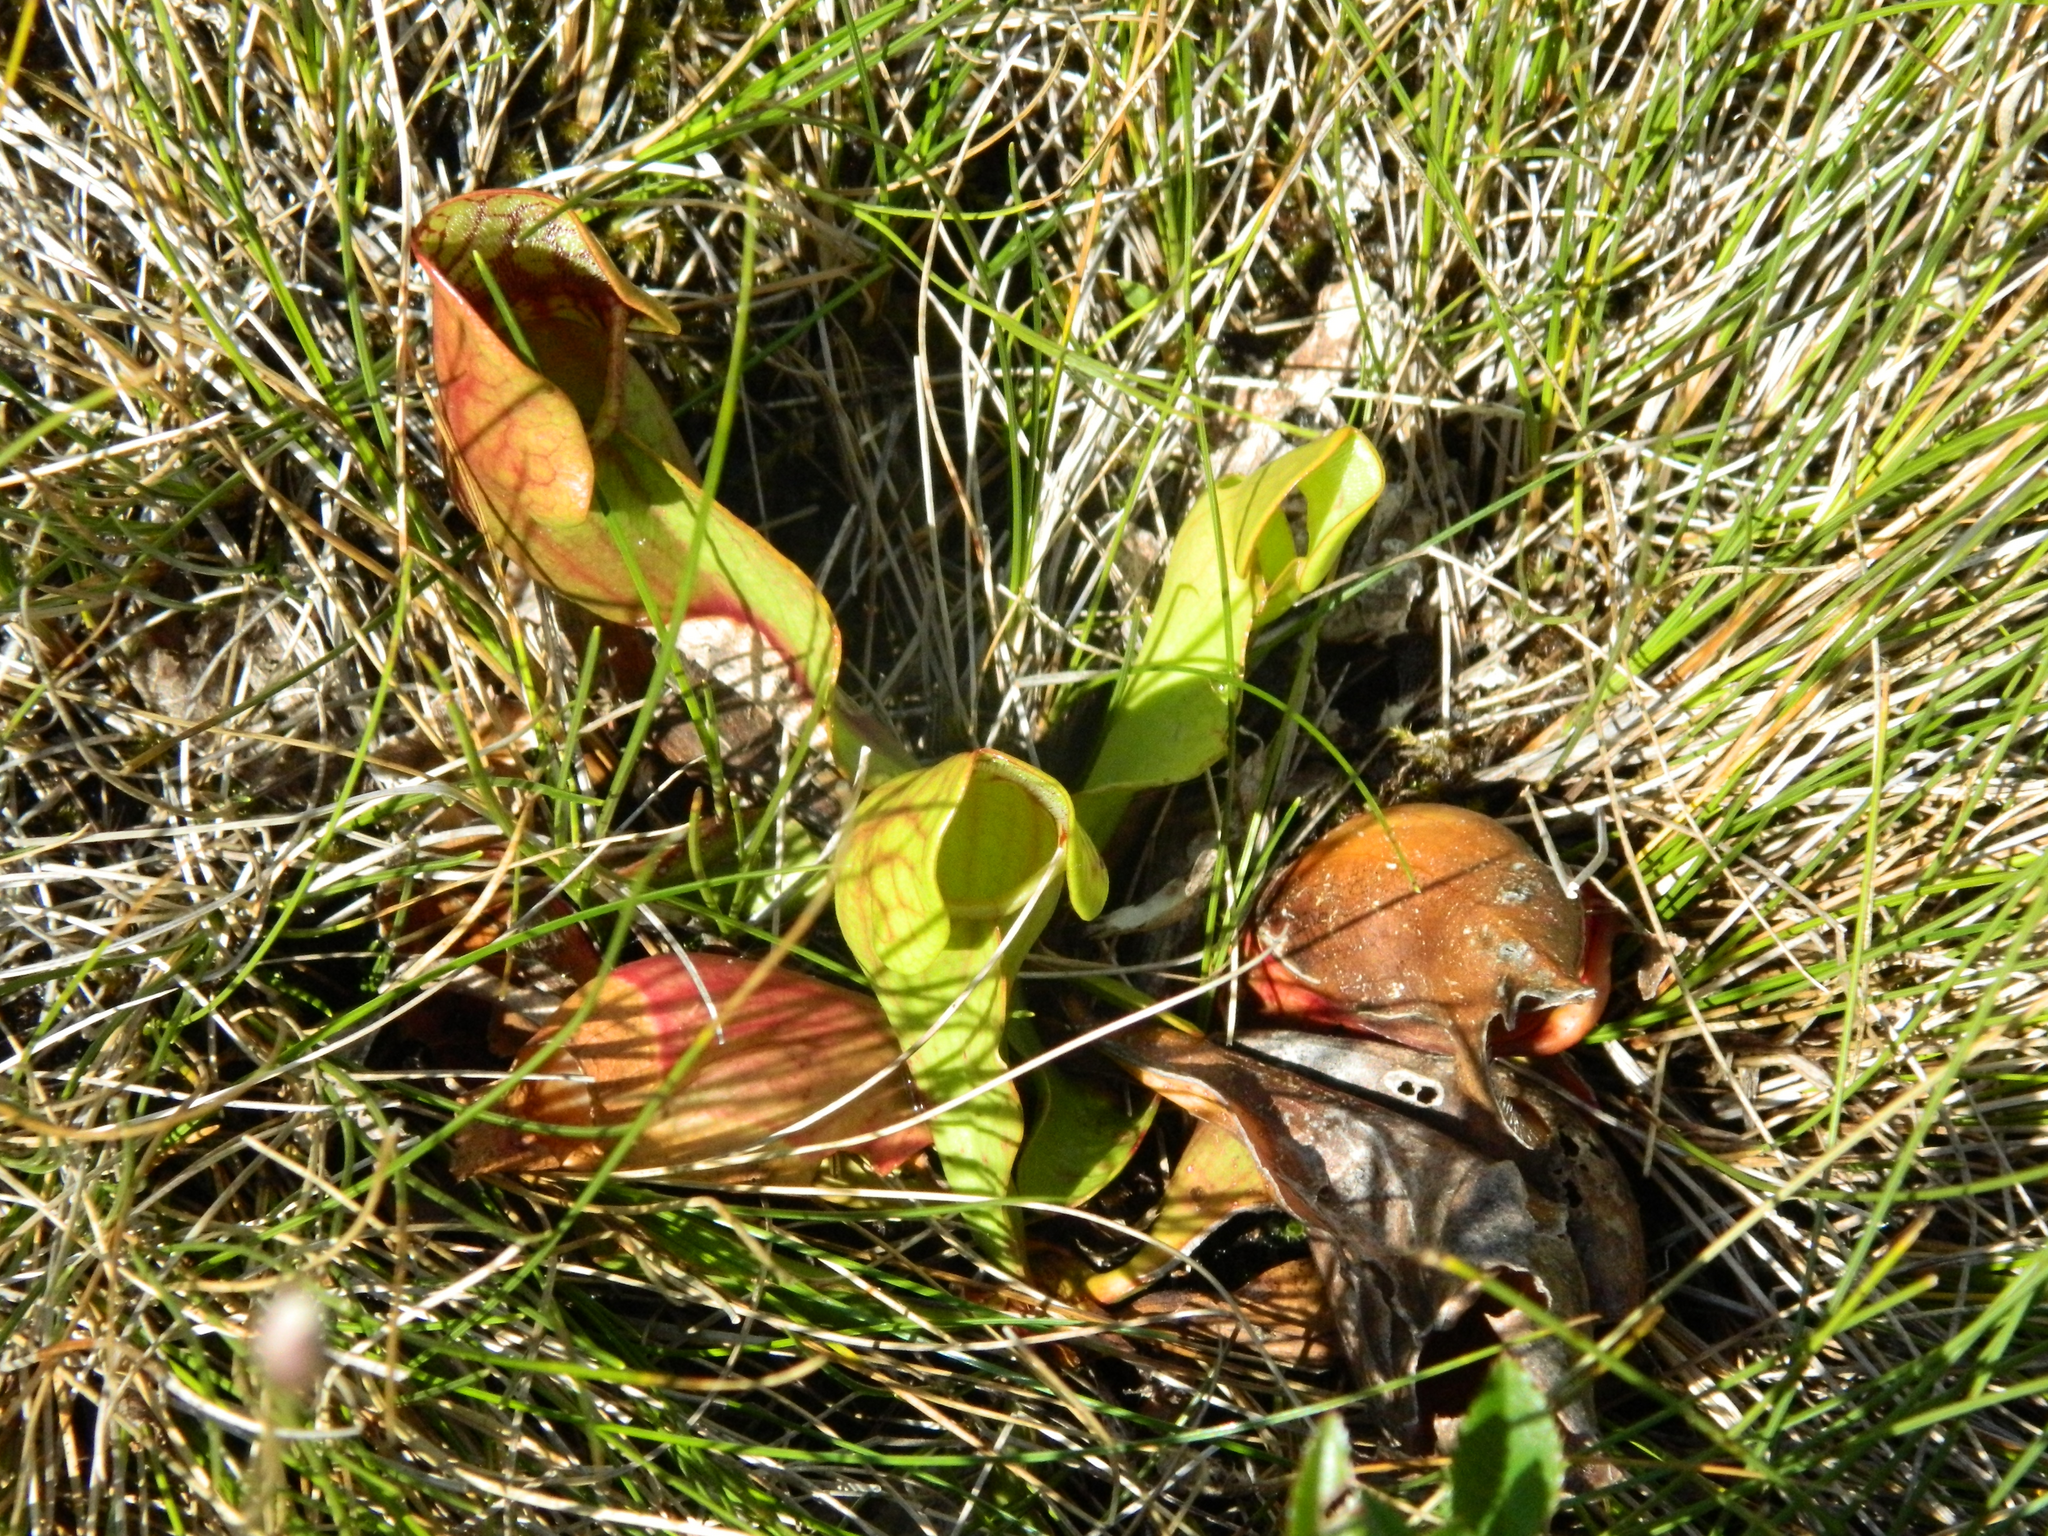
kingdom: Plantae
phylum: Tracheophyta
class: Magnoliopsida
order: Ericales
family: Sarraceniaceae
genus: Sarracenia
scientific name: Sarracenia purpurea
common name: Pitcherplant
